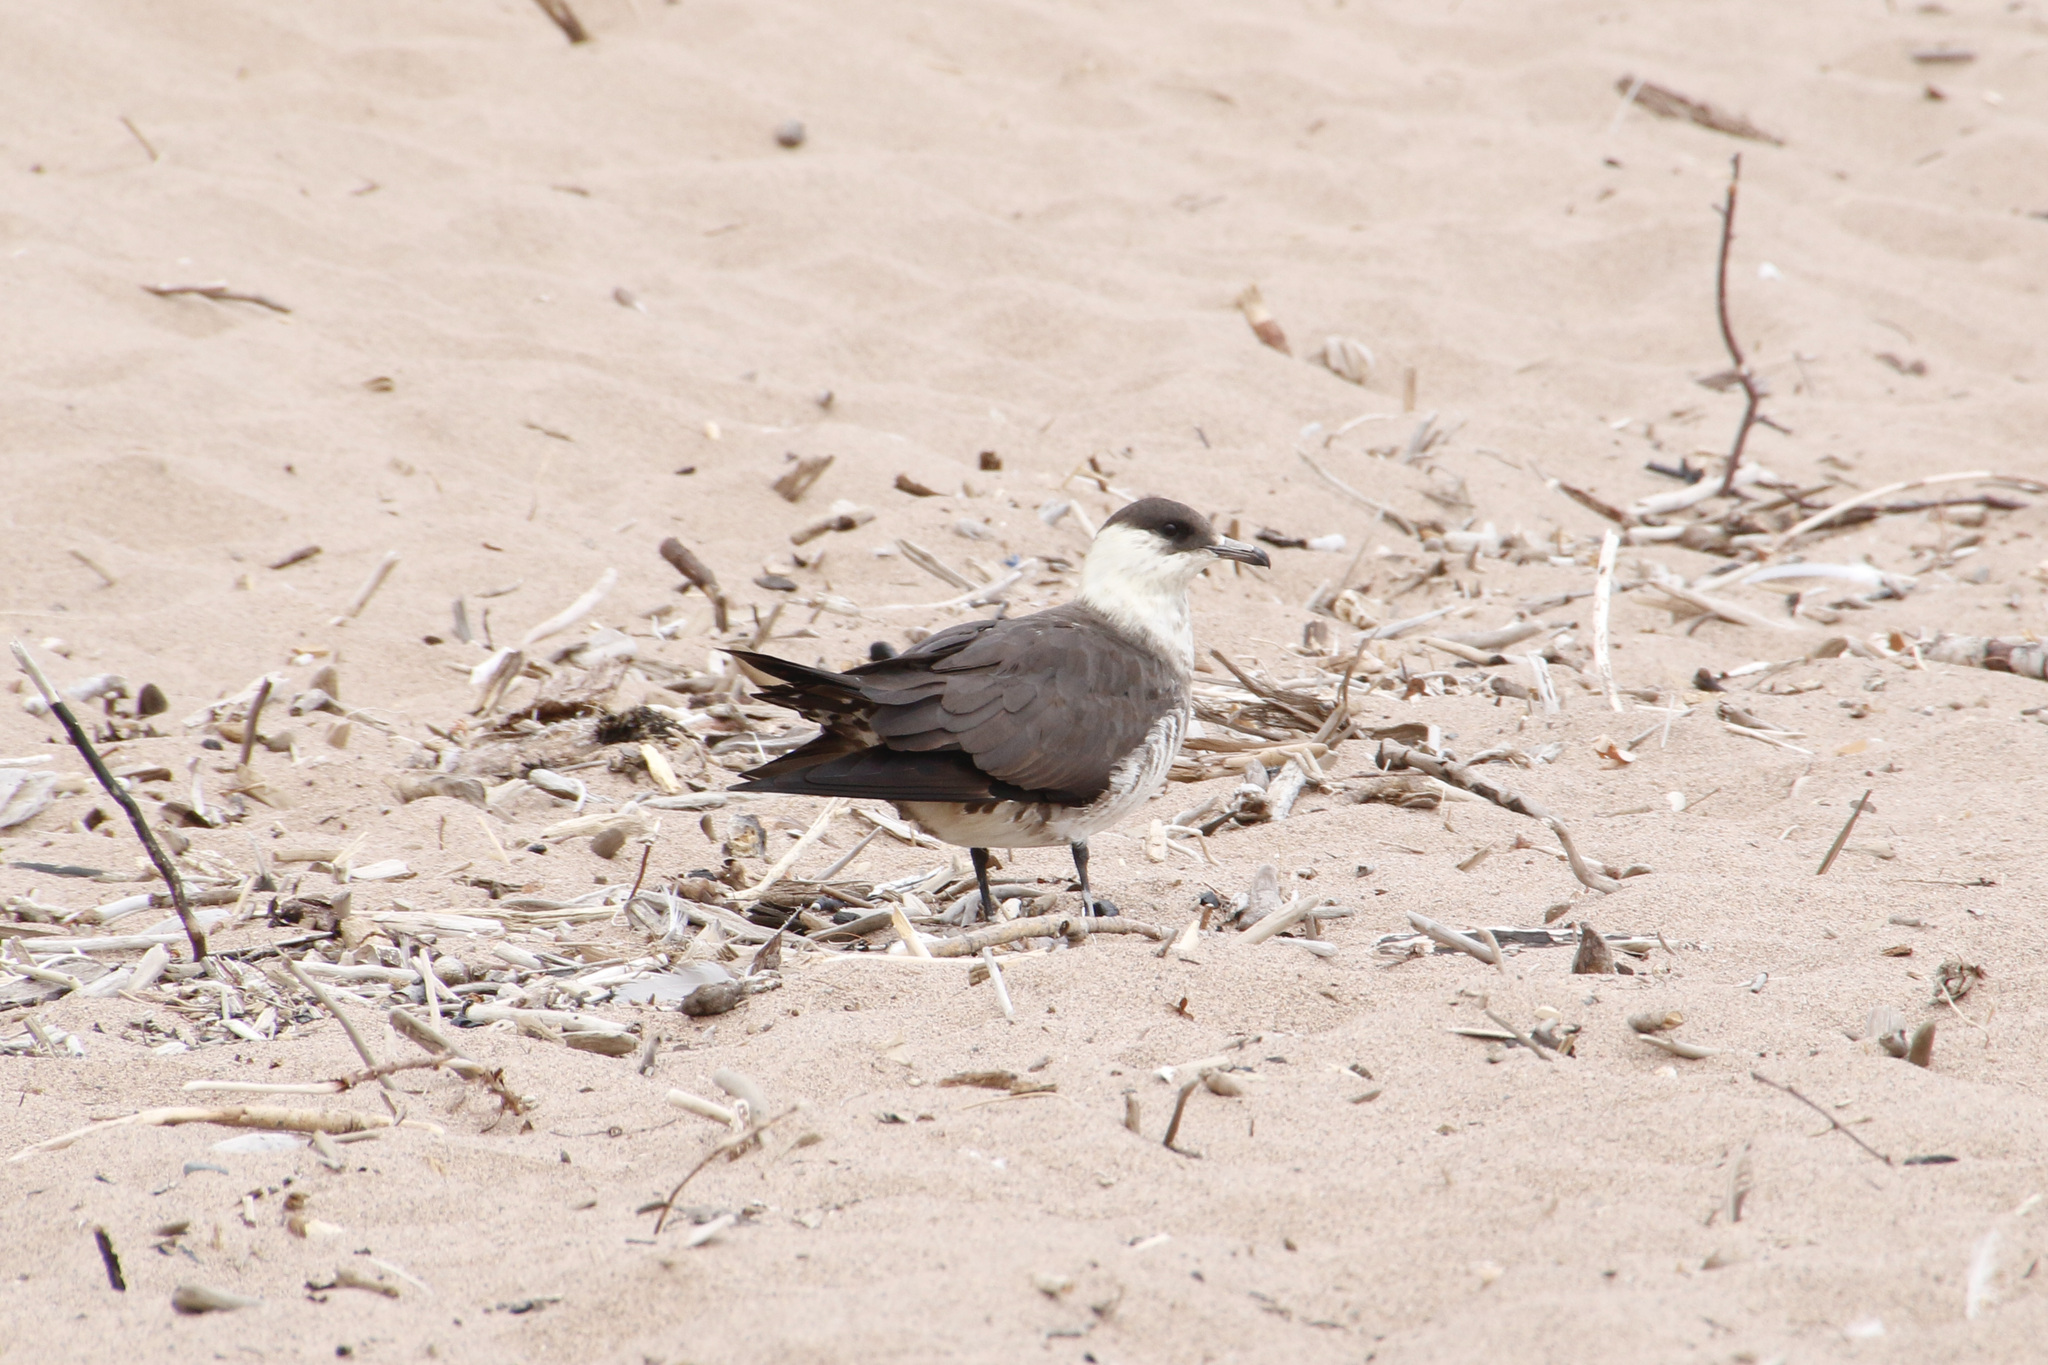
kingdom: Animalia
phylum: Chordata
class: Aves
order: Charadriiformes
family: Stercorariidae
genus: Stercorarius
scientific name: Stercorarius parasiticus
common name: Parasitic jaeger
